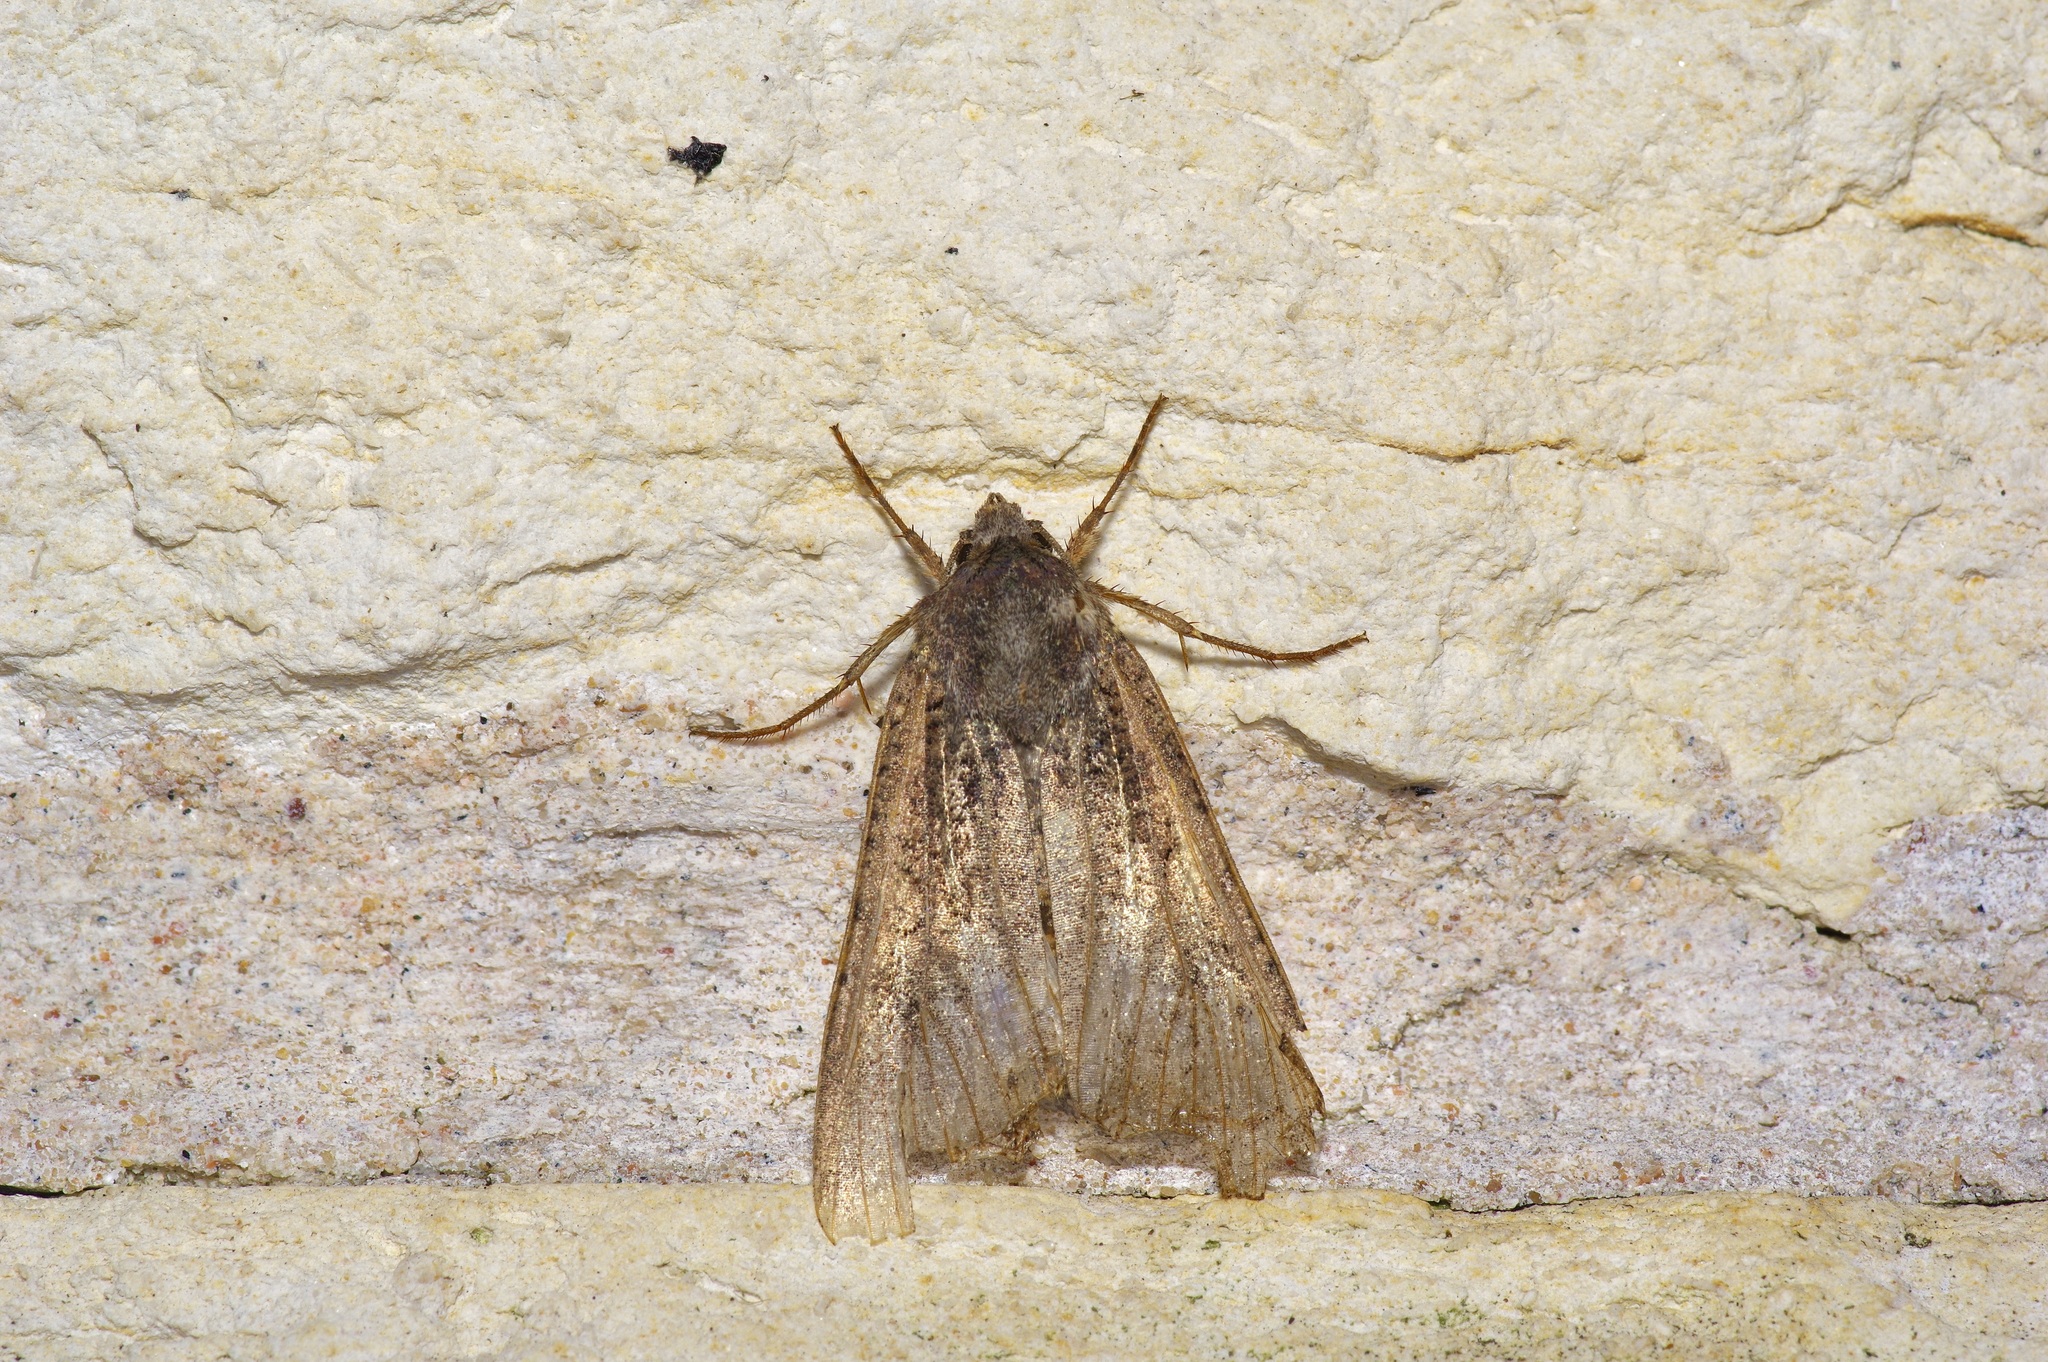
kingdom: Animalia
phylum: Arthropoda
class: Insecta
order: Lepidoptera
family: Noctuidae
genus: Peridroma
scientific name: Peridroma saucia
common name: Pearly underwing
